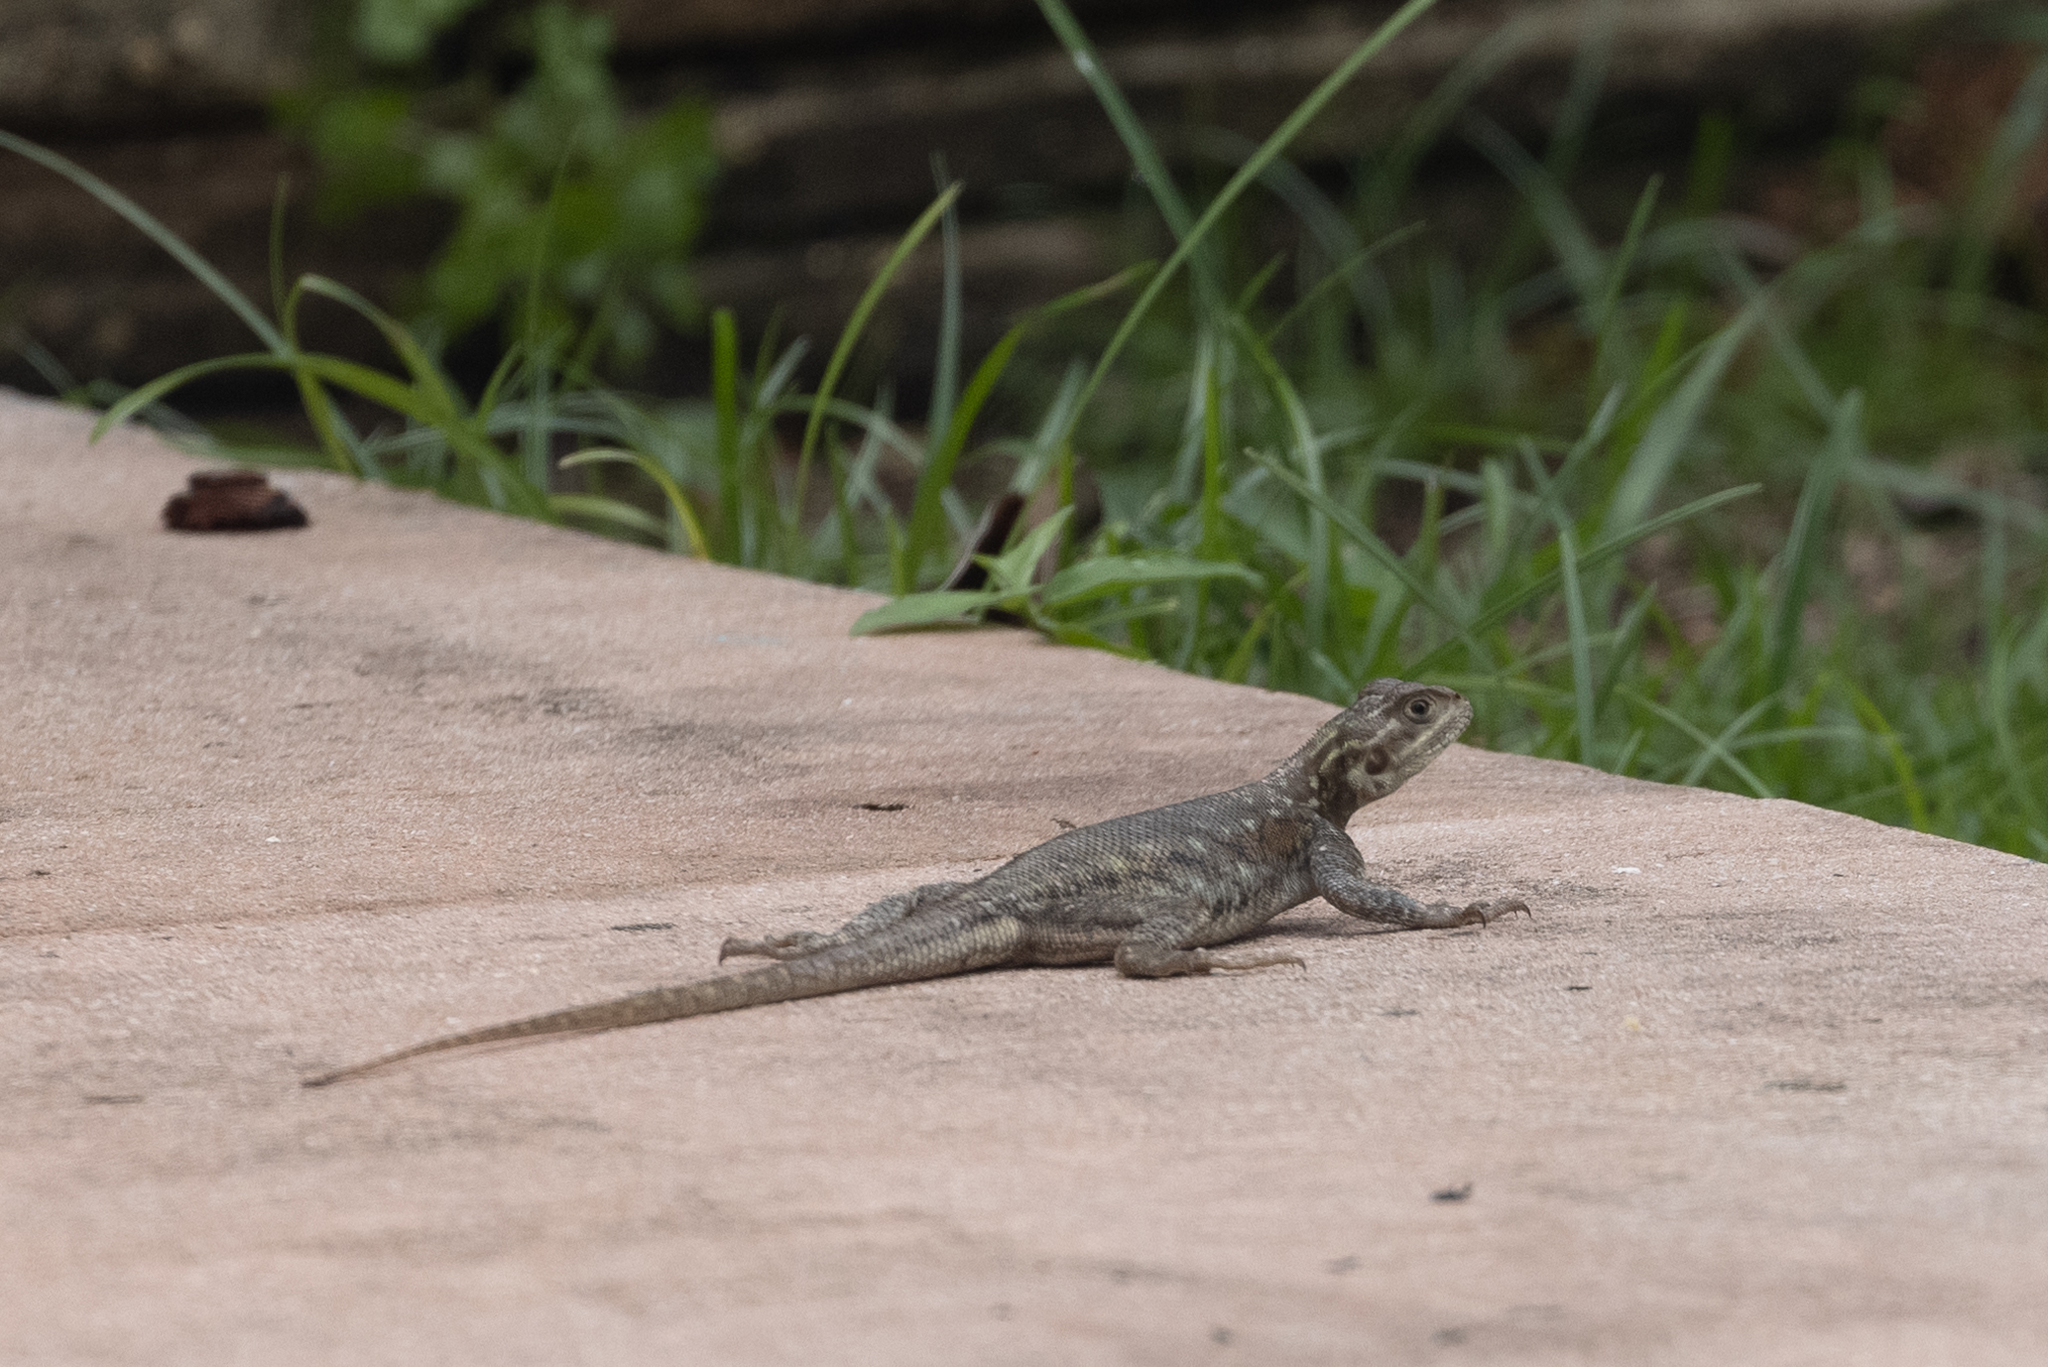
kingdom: Animalia
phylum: Chordata
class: Squamata
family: Agamidae
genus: Agama
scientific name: Agama picticauda
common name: Red-headed agama
